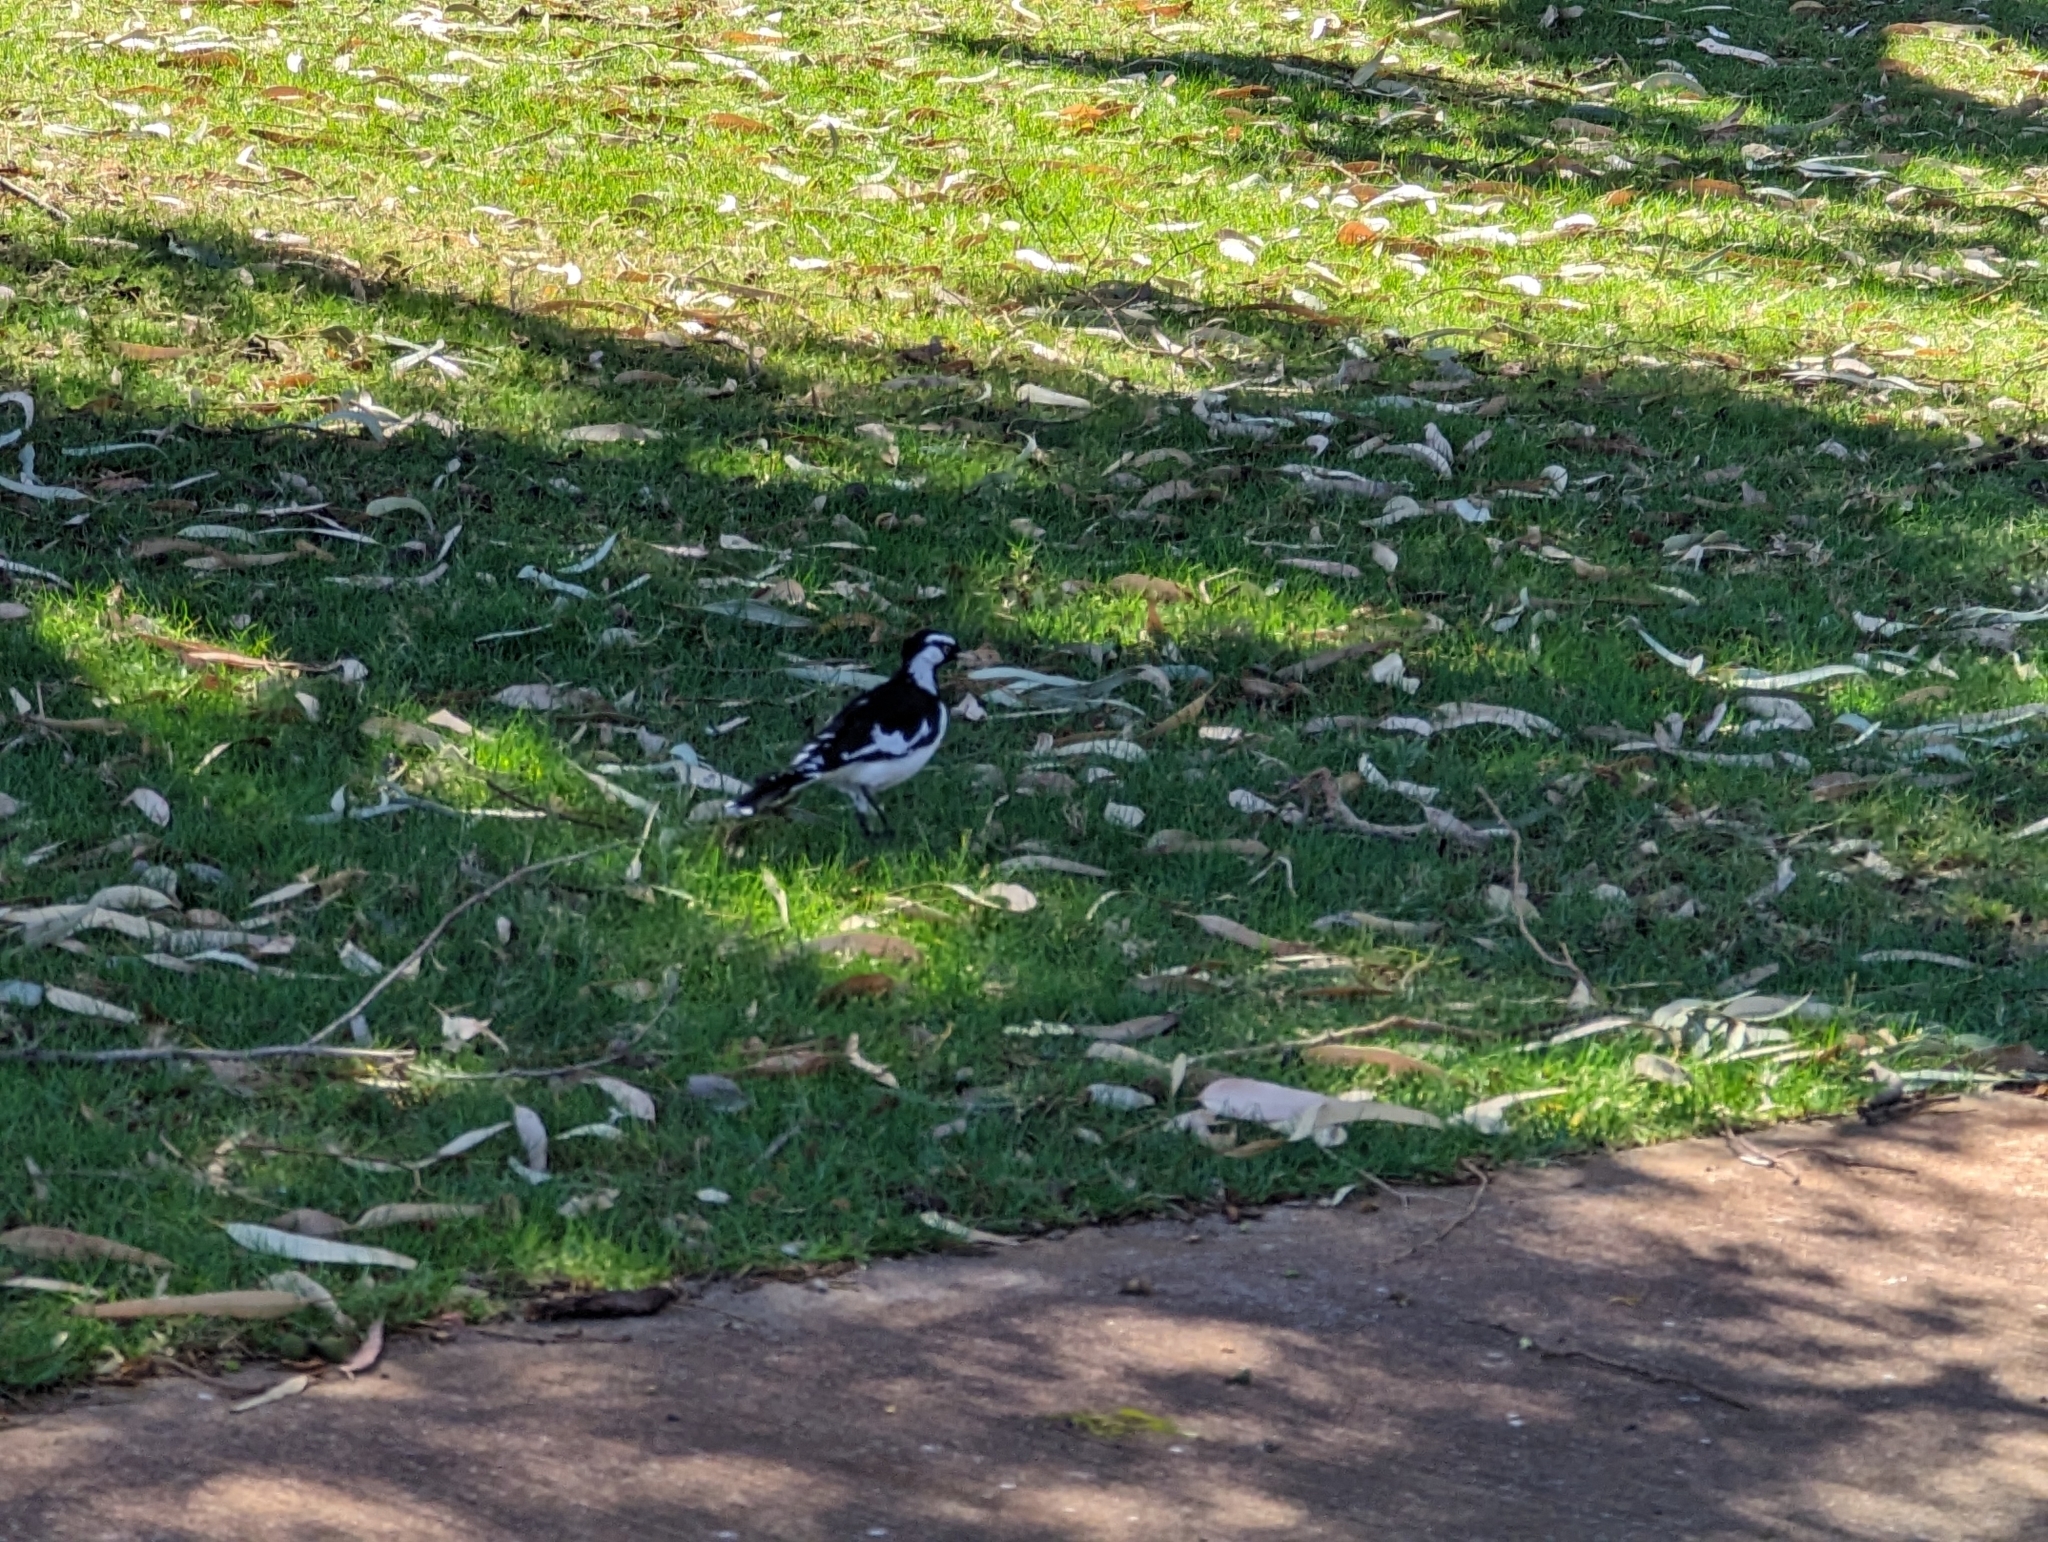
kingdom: Animalia
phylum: Chordata
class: Aves
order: Passeriformes
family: Monarchidae
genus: Grallina
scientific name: Grallina cyanoleuca
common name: Magpie-lark
